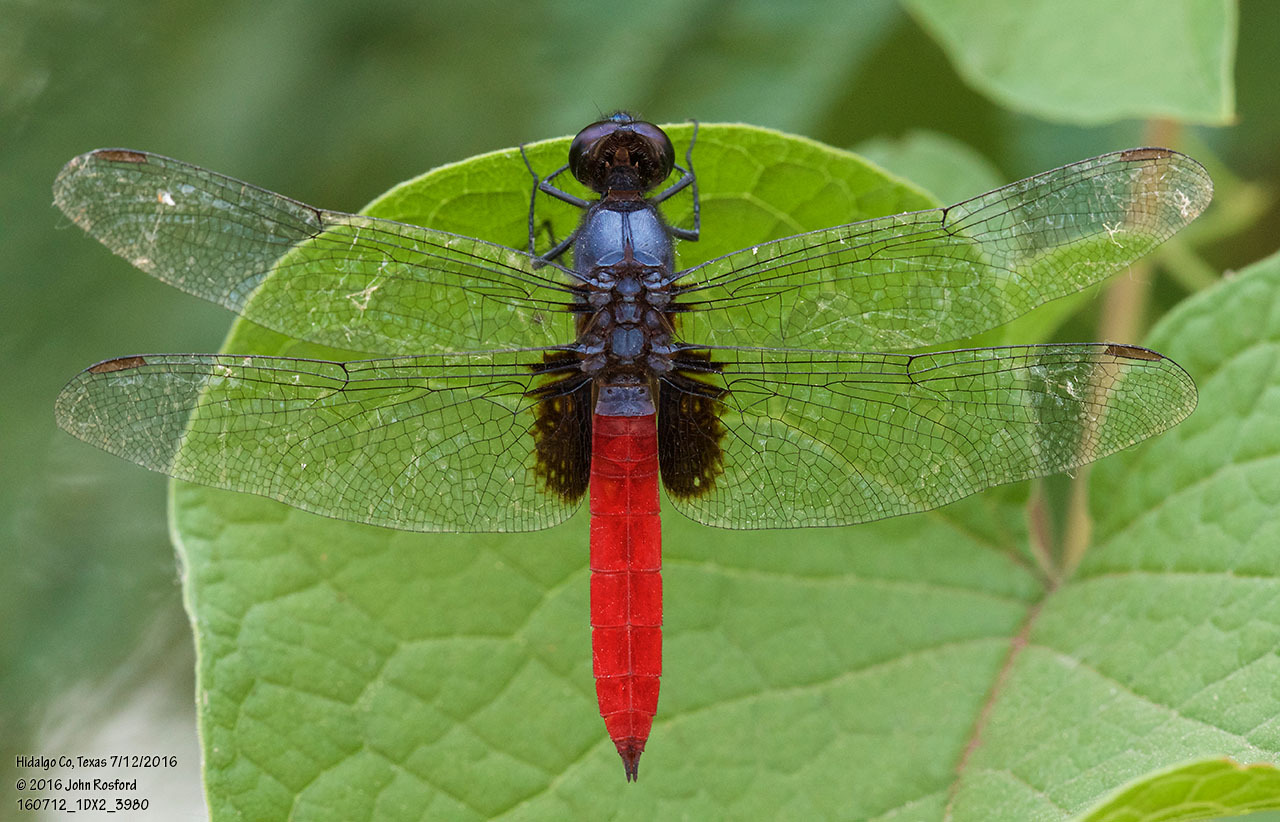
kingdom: Animalia
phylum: Arthropoda
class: Insecta
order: Odonata
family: Libellulidae
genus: Planiplax
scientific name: Planiplax sanguiniventris
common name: Mexican scarlet-tail
